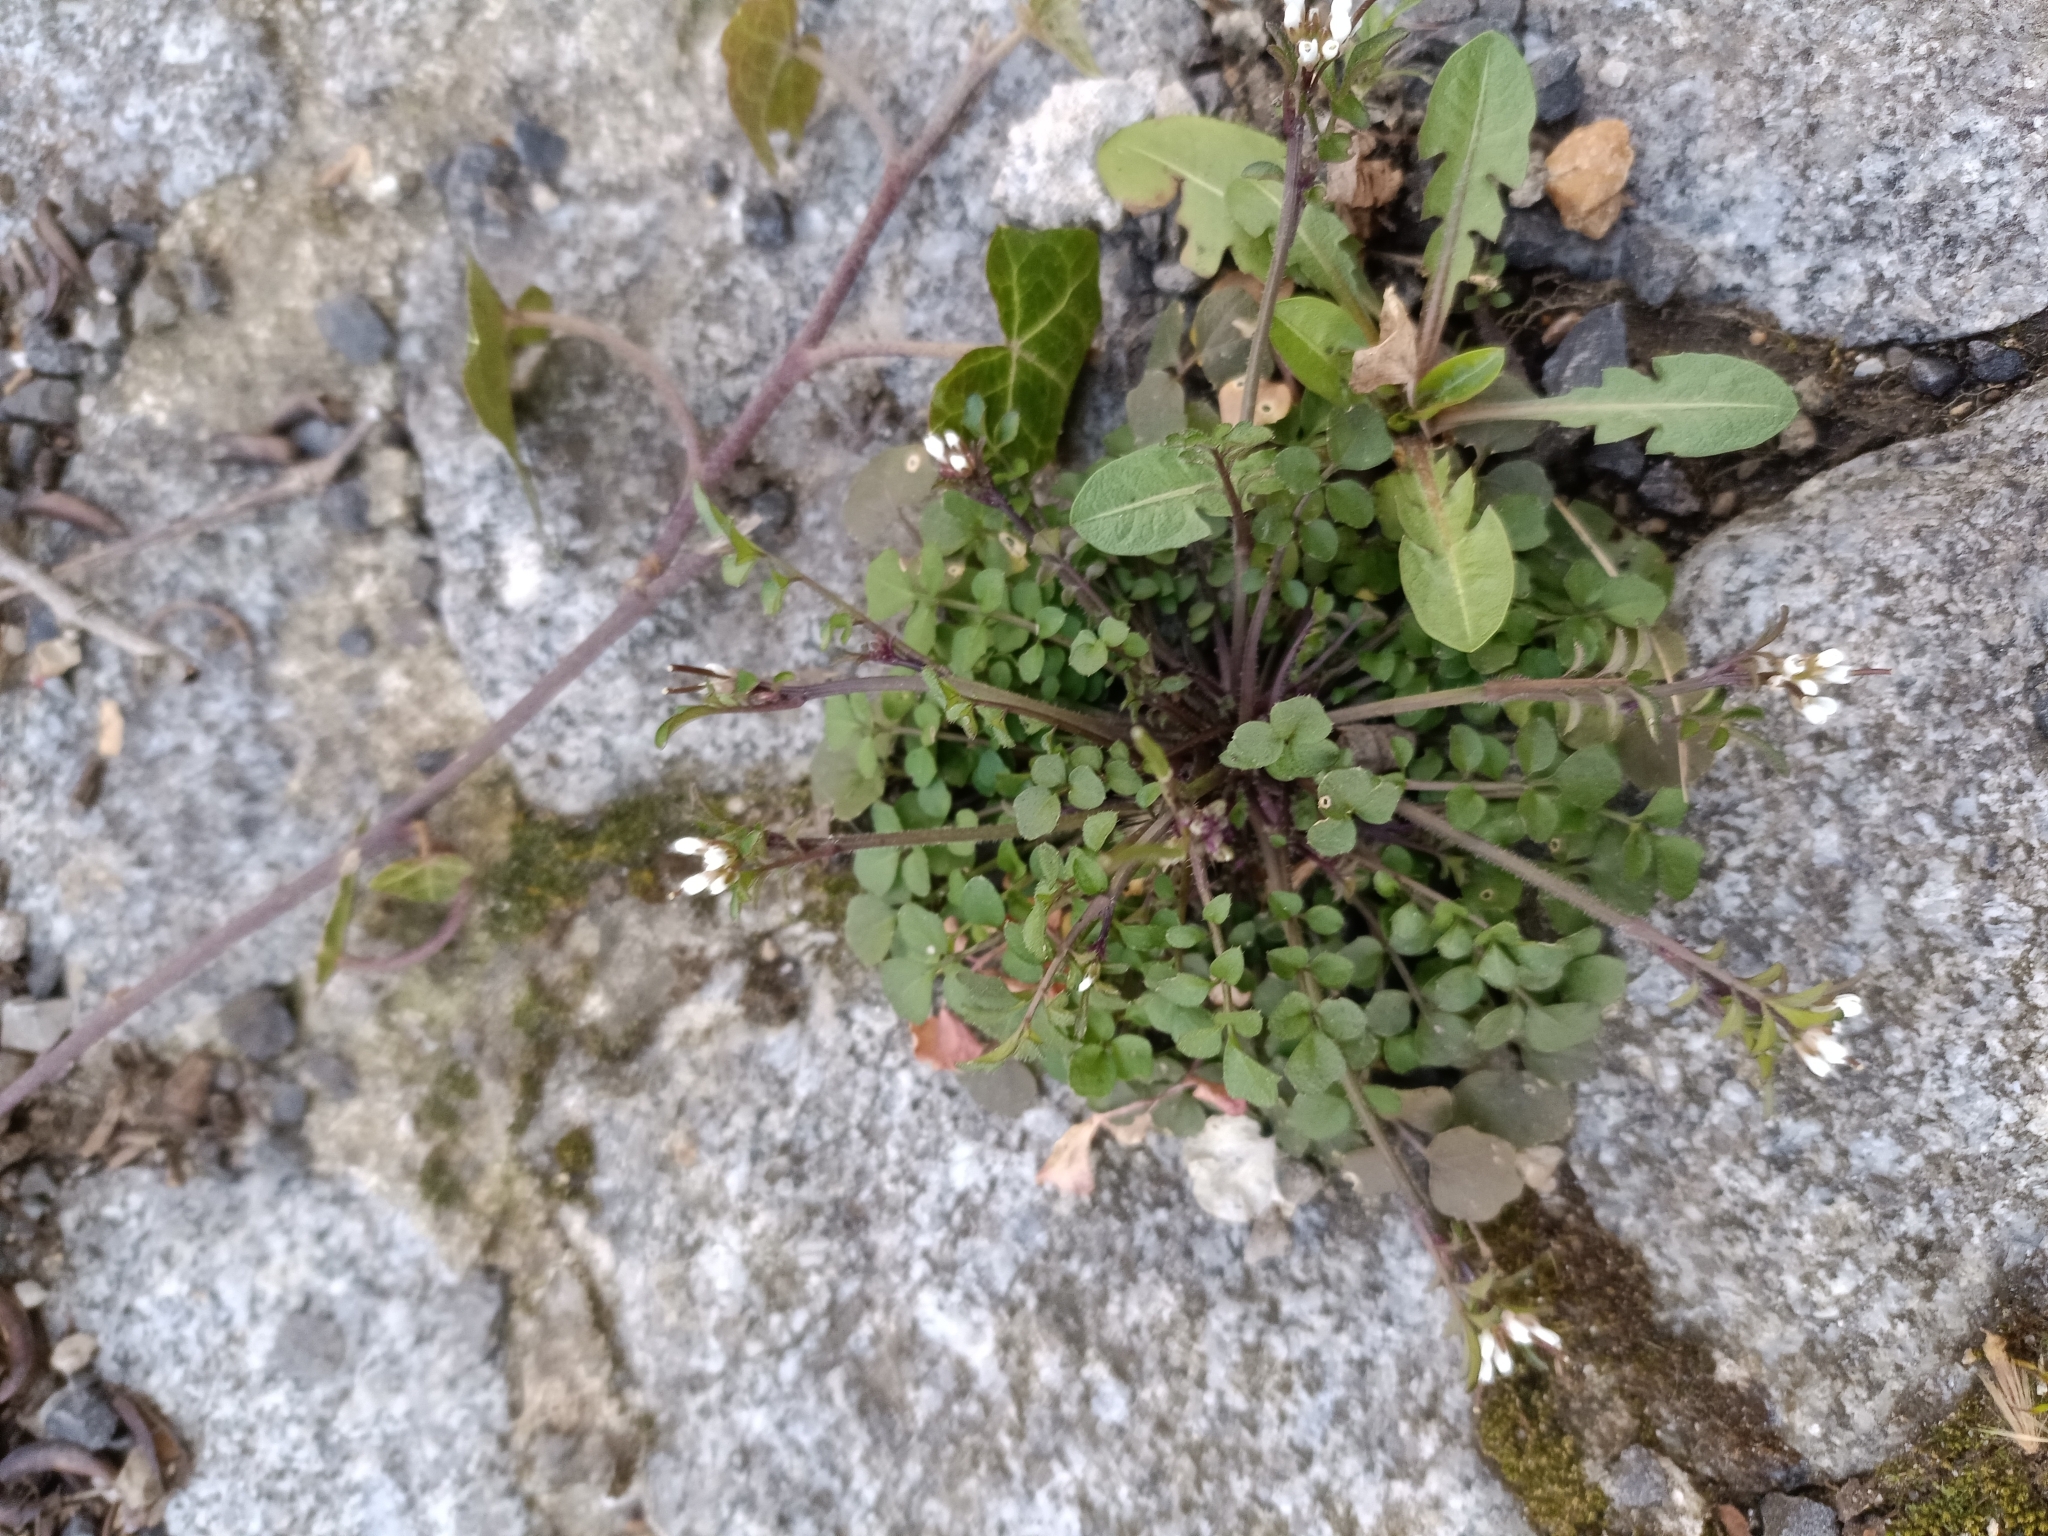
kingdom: Plantae
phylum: Tracheophyta
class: Magnoliopsida
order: Brassicales
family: Brassicaceae
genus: Cardamine
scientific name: Cardamine hirsuta
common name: Hairy bittercress
